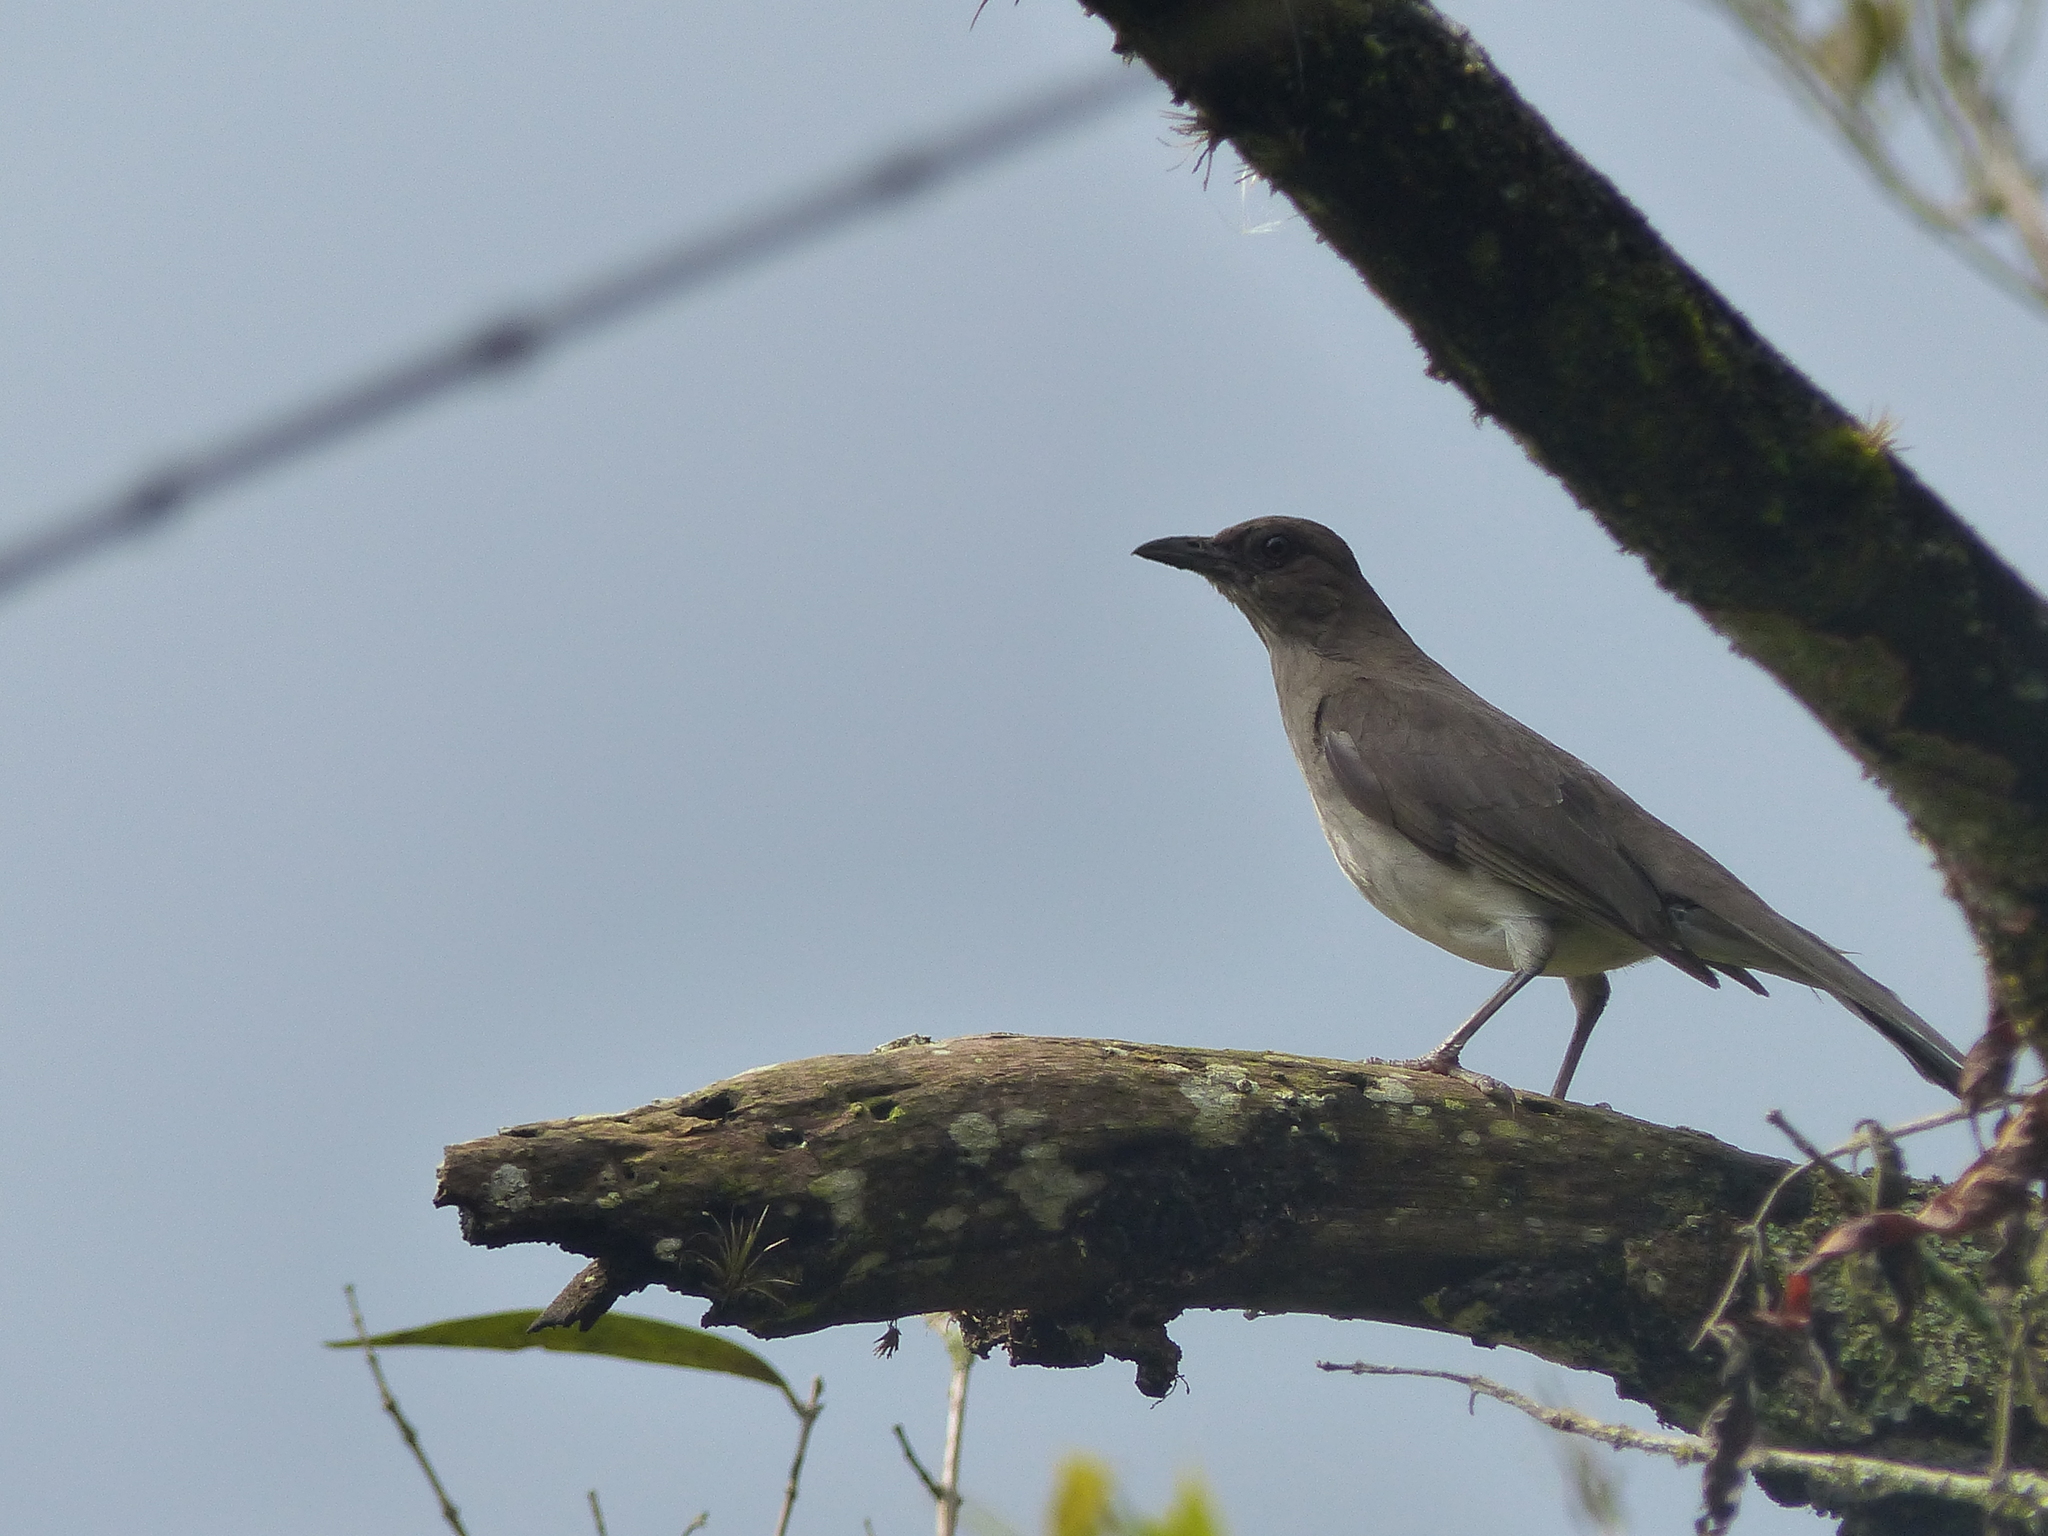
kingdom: Animalia
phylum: Chordata
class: Aves
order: Passeriformes
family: Turdidae
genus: Turdus
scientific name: Turdus ignobilis
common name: Black-billed thrush
